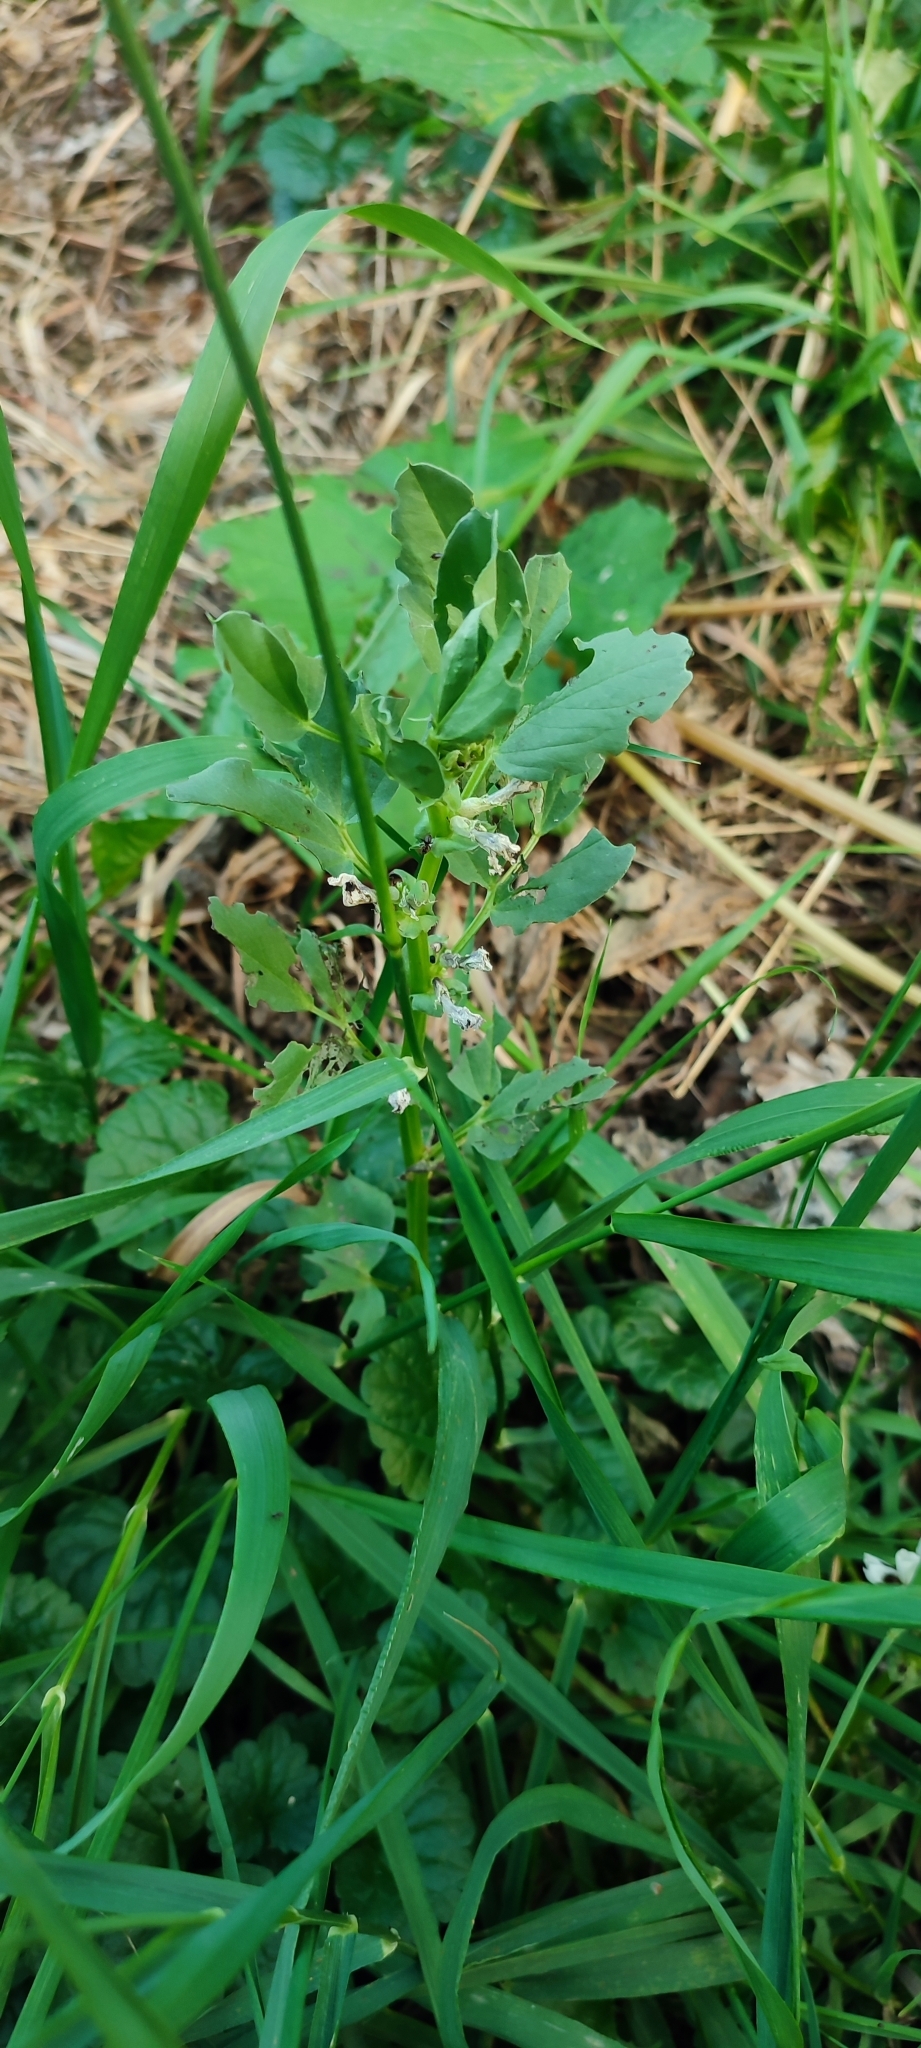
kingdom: Plantae
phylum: Tracheophyta
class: Magnoliopsida
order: Fabales
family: Fabaceae
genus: Vicia
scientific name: Vicia faba
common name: Broad bean
